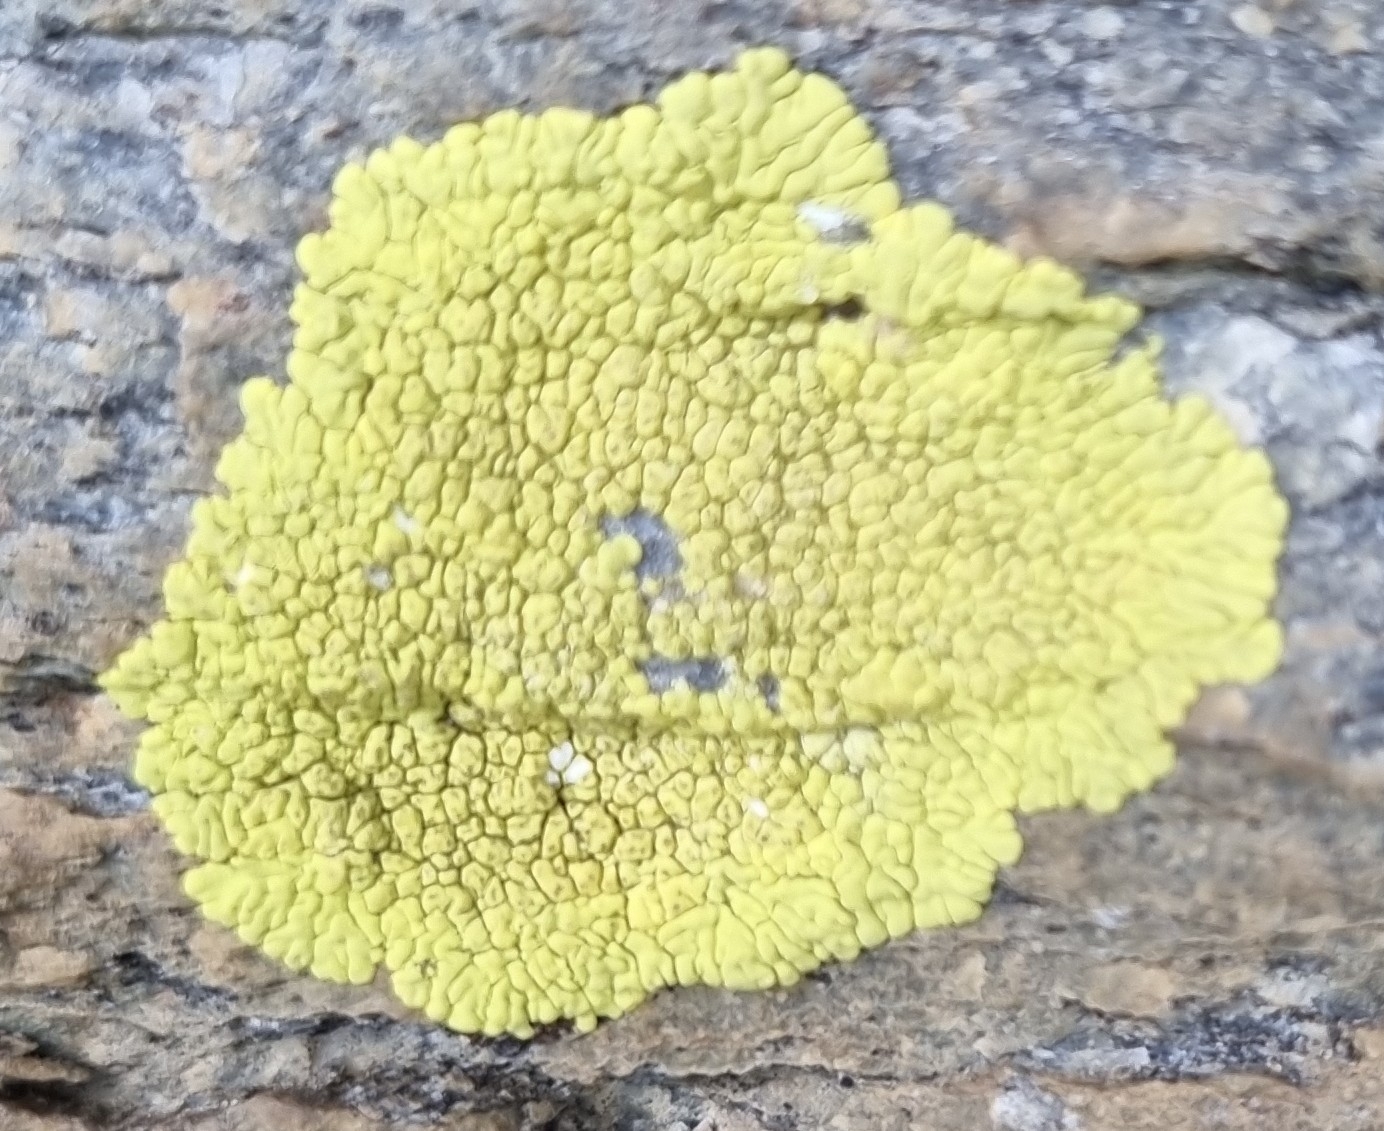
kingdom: Fungi
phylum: Ascomycota
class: Lecanoromycetes
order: Acarosporales
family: Acarosporaceae
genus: Pleopsidium
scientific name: Pleopsidium oxytonum
